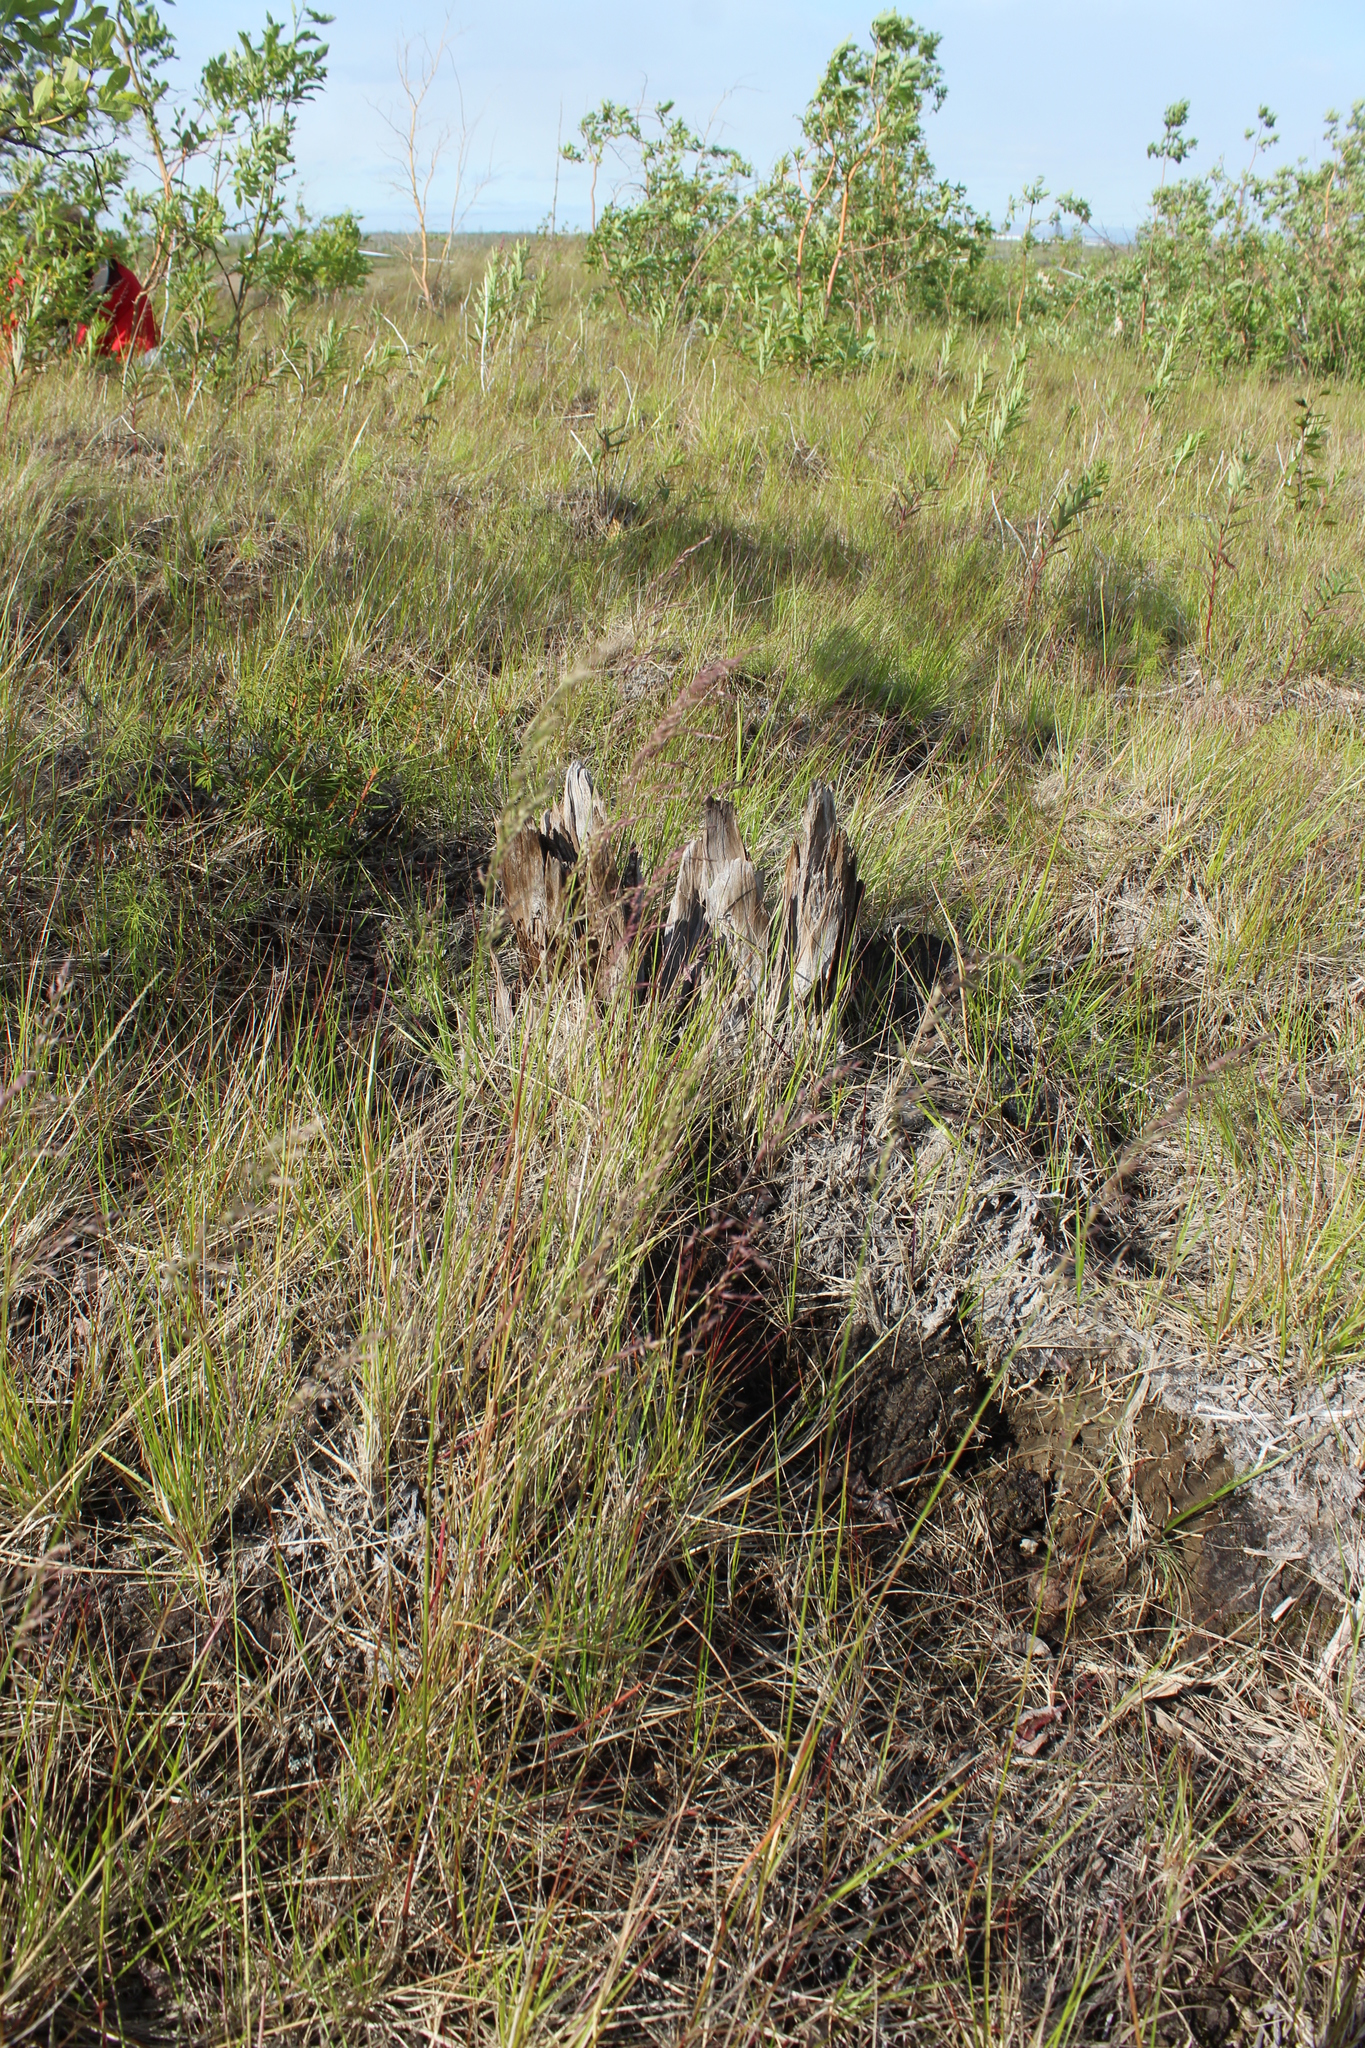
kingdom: Plantae
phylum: Tracheophyta
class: Liliopsida
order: Poales
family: Poaceae
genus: Poa
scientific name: Poa pratensis
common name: Kentucky bluegrass
